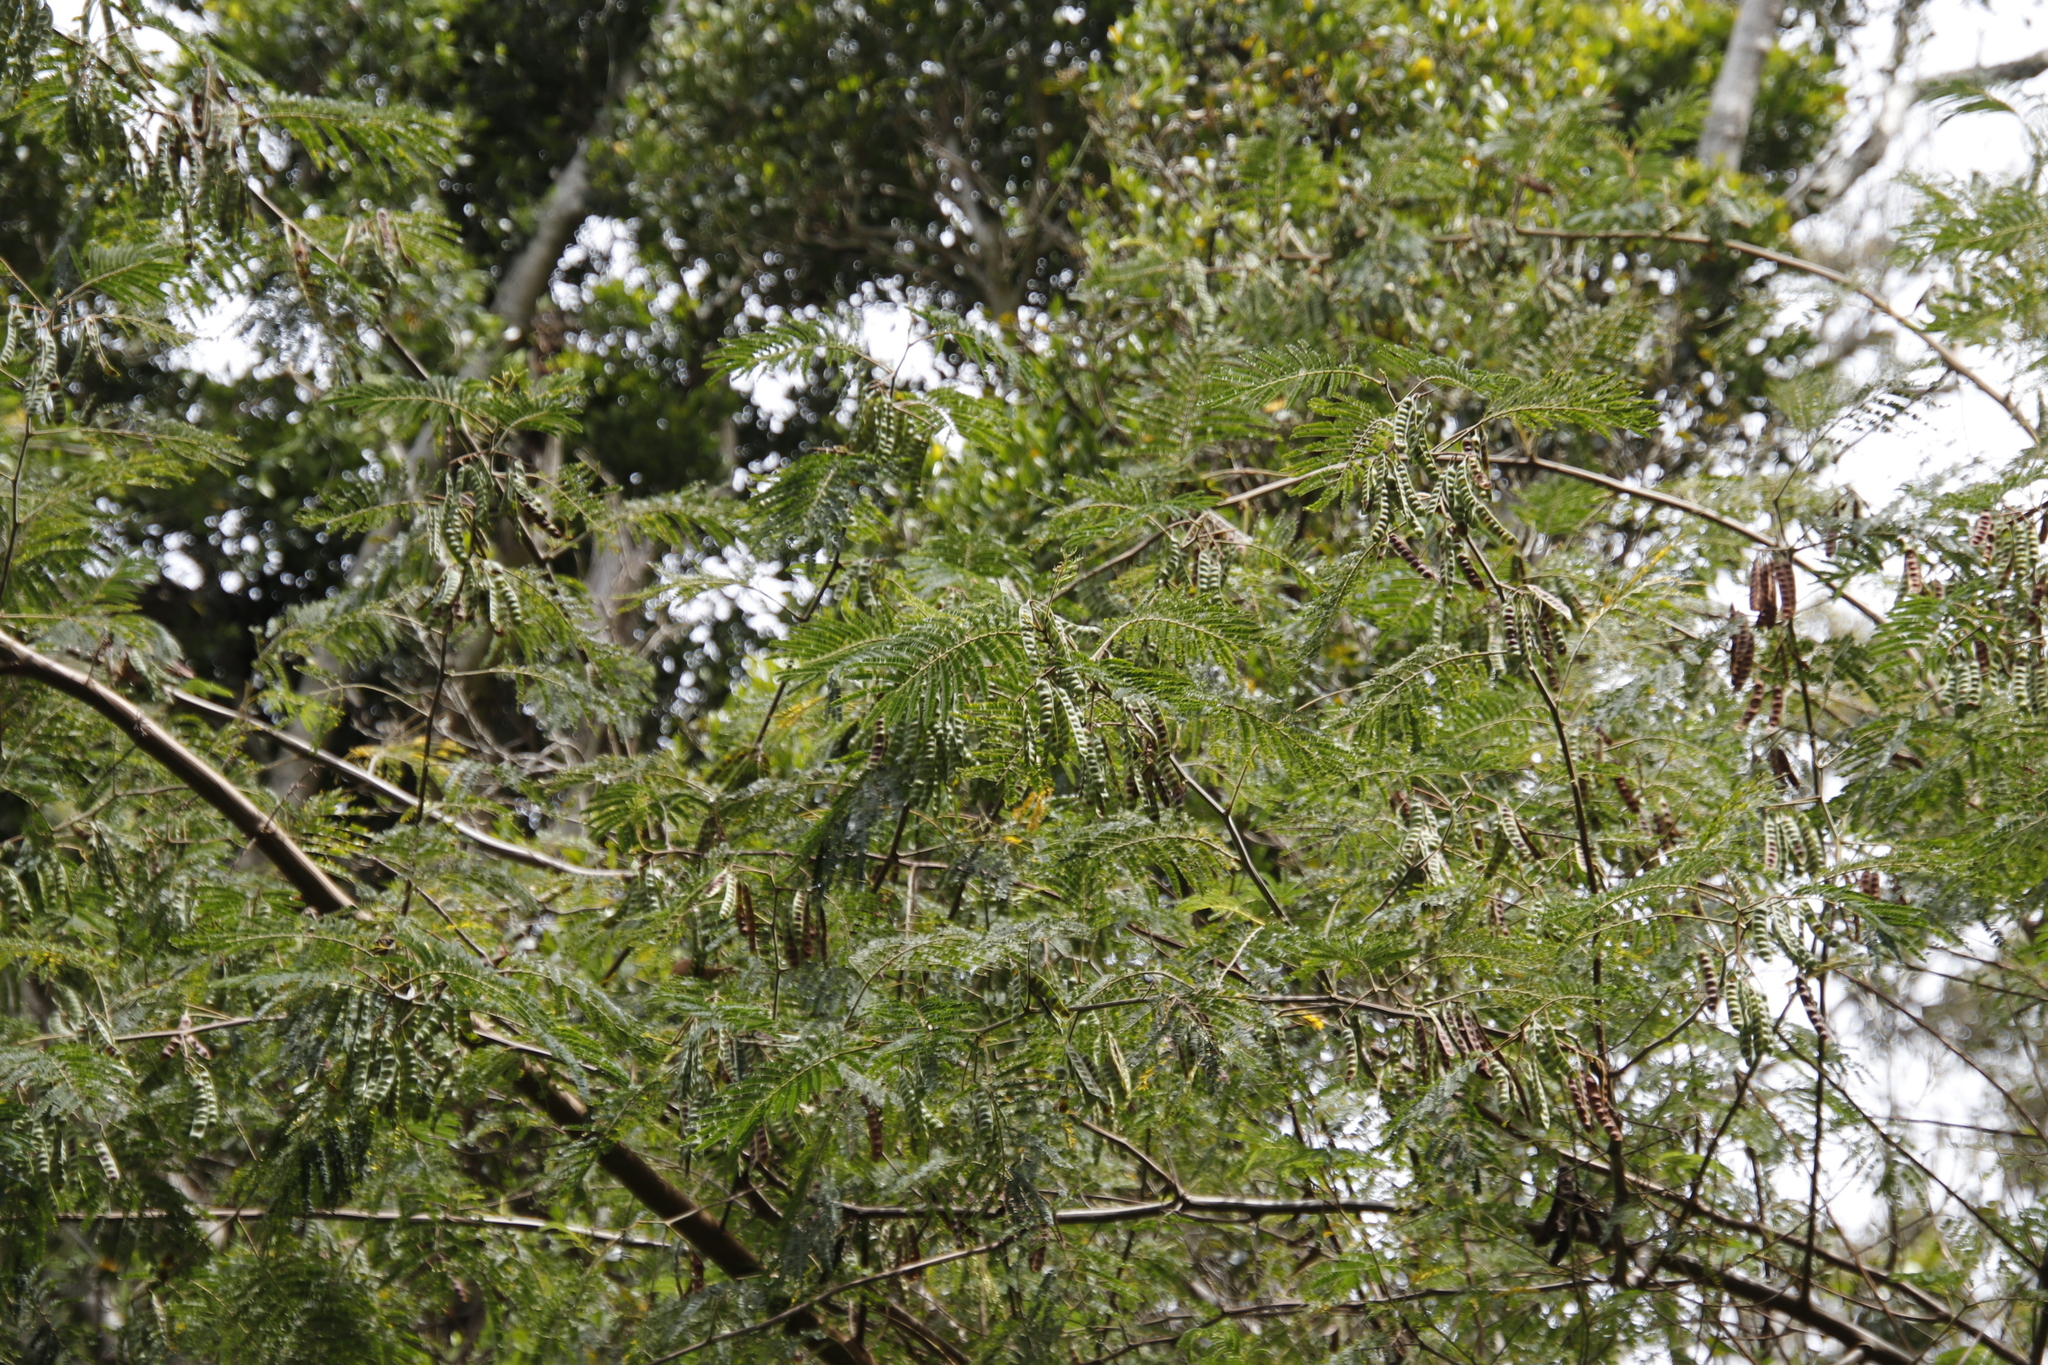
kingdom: Plantae
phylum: Tracheophyta
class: Magnoliopsida
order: Fabales
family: Fabaceae
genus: Paraserianthes
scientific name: Paraserianthes lophantha
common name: Plume albizia
